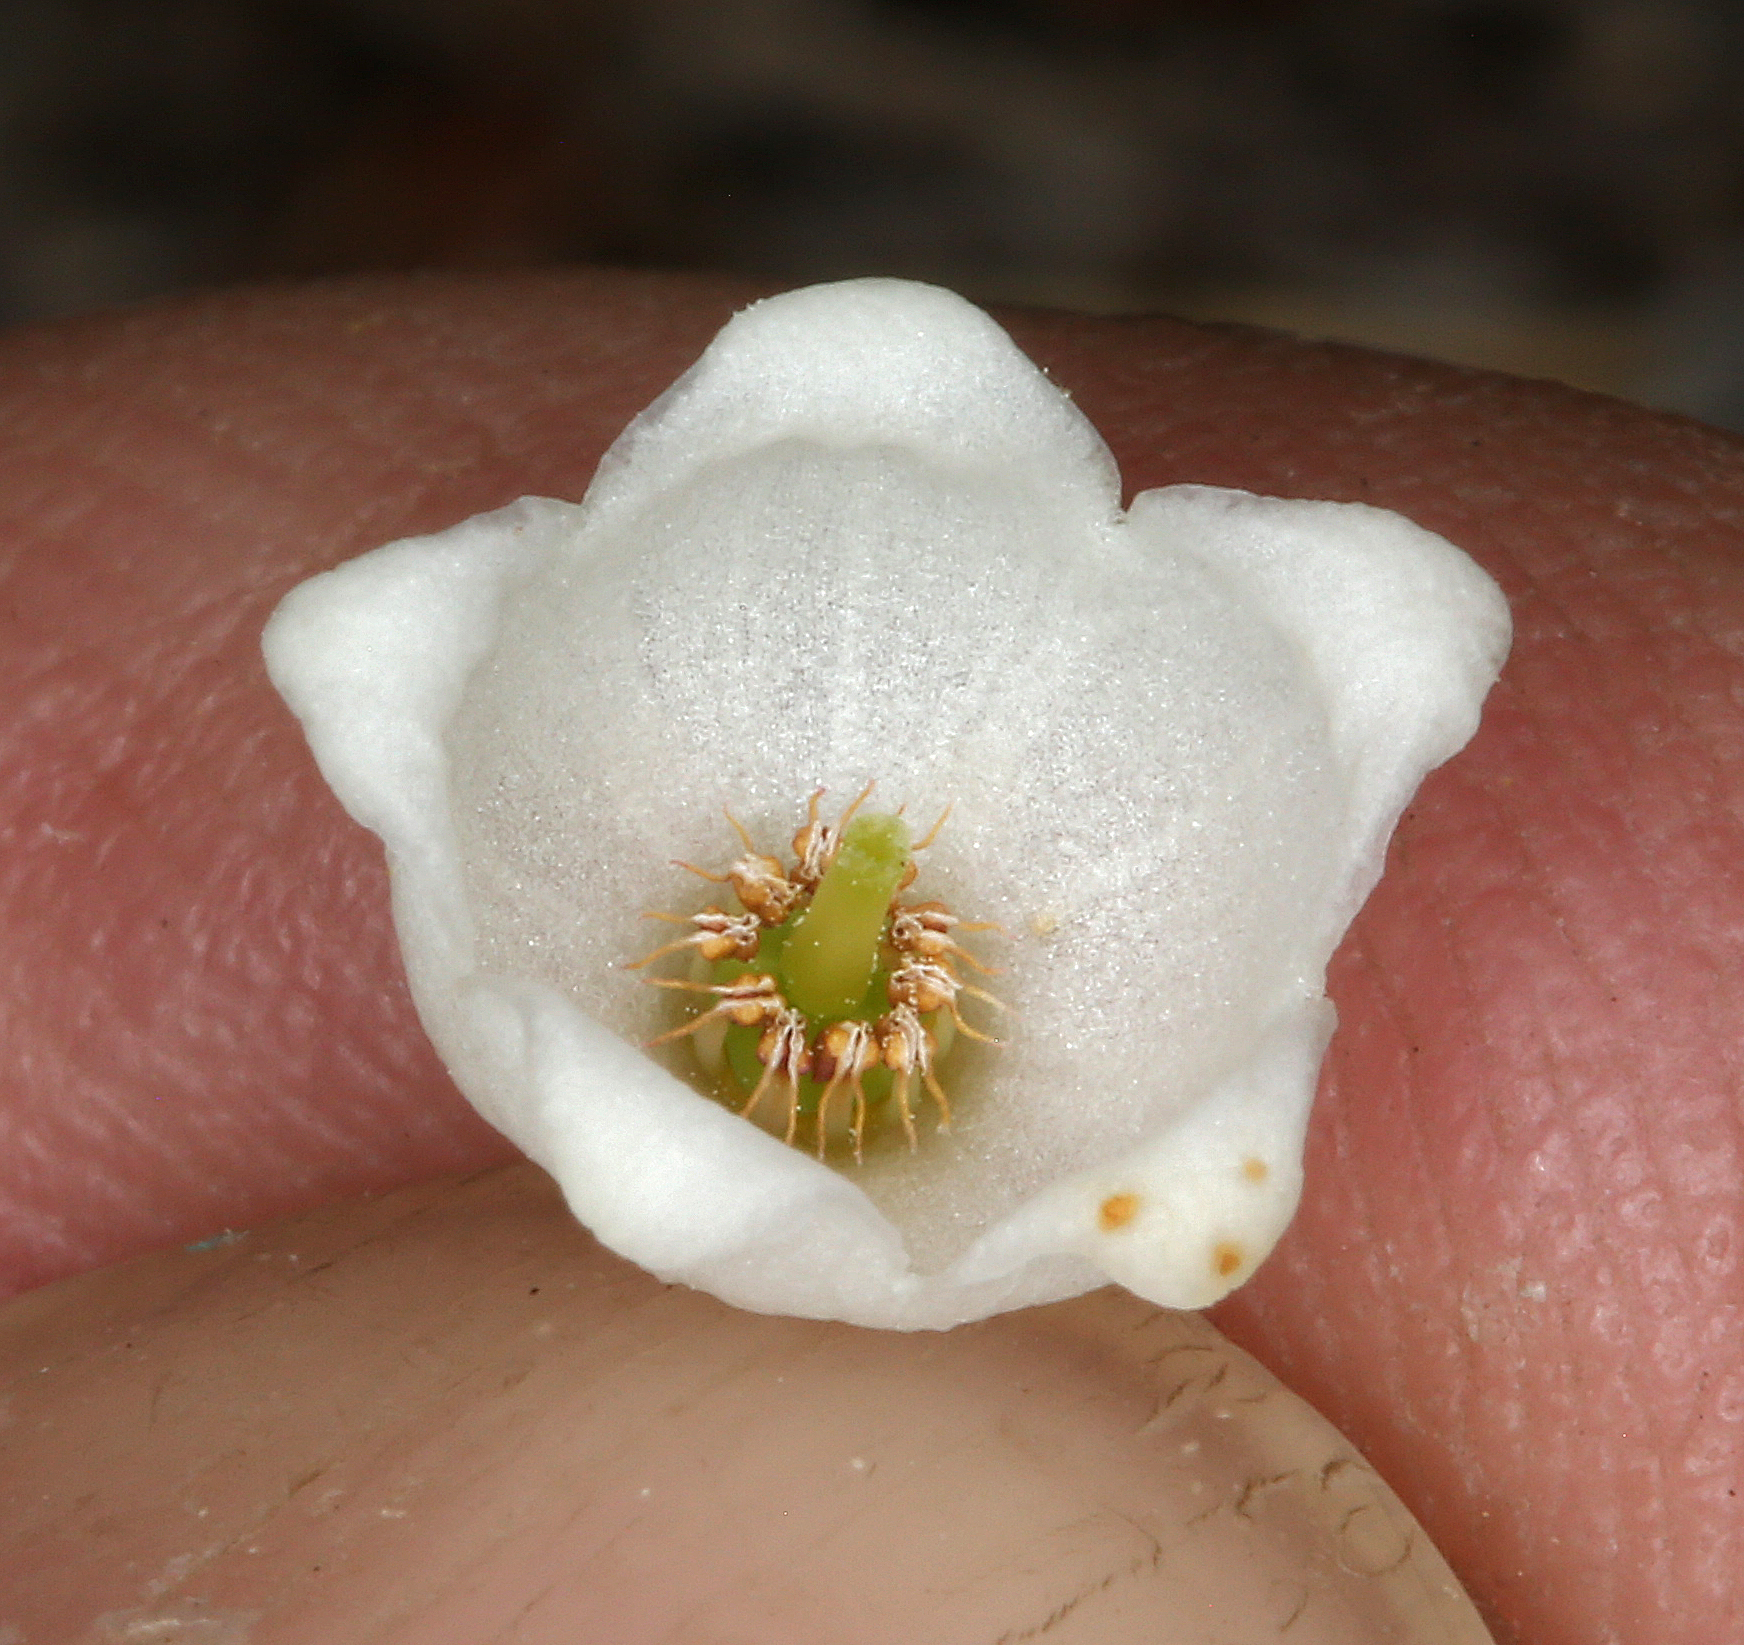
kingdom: Plantae
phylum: Tracheophyta
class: Magnoliopsida
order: Ericales
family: Ericaceae
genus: Cassiope
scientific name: Cassiope mertensiana
